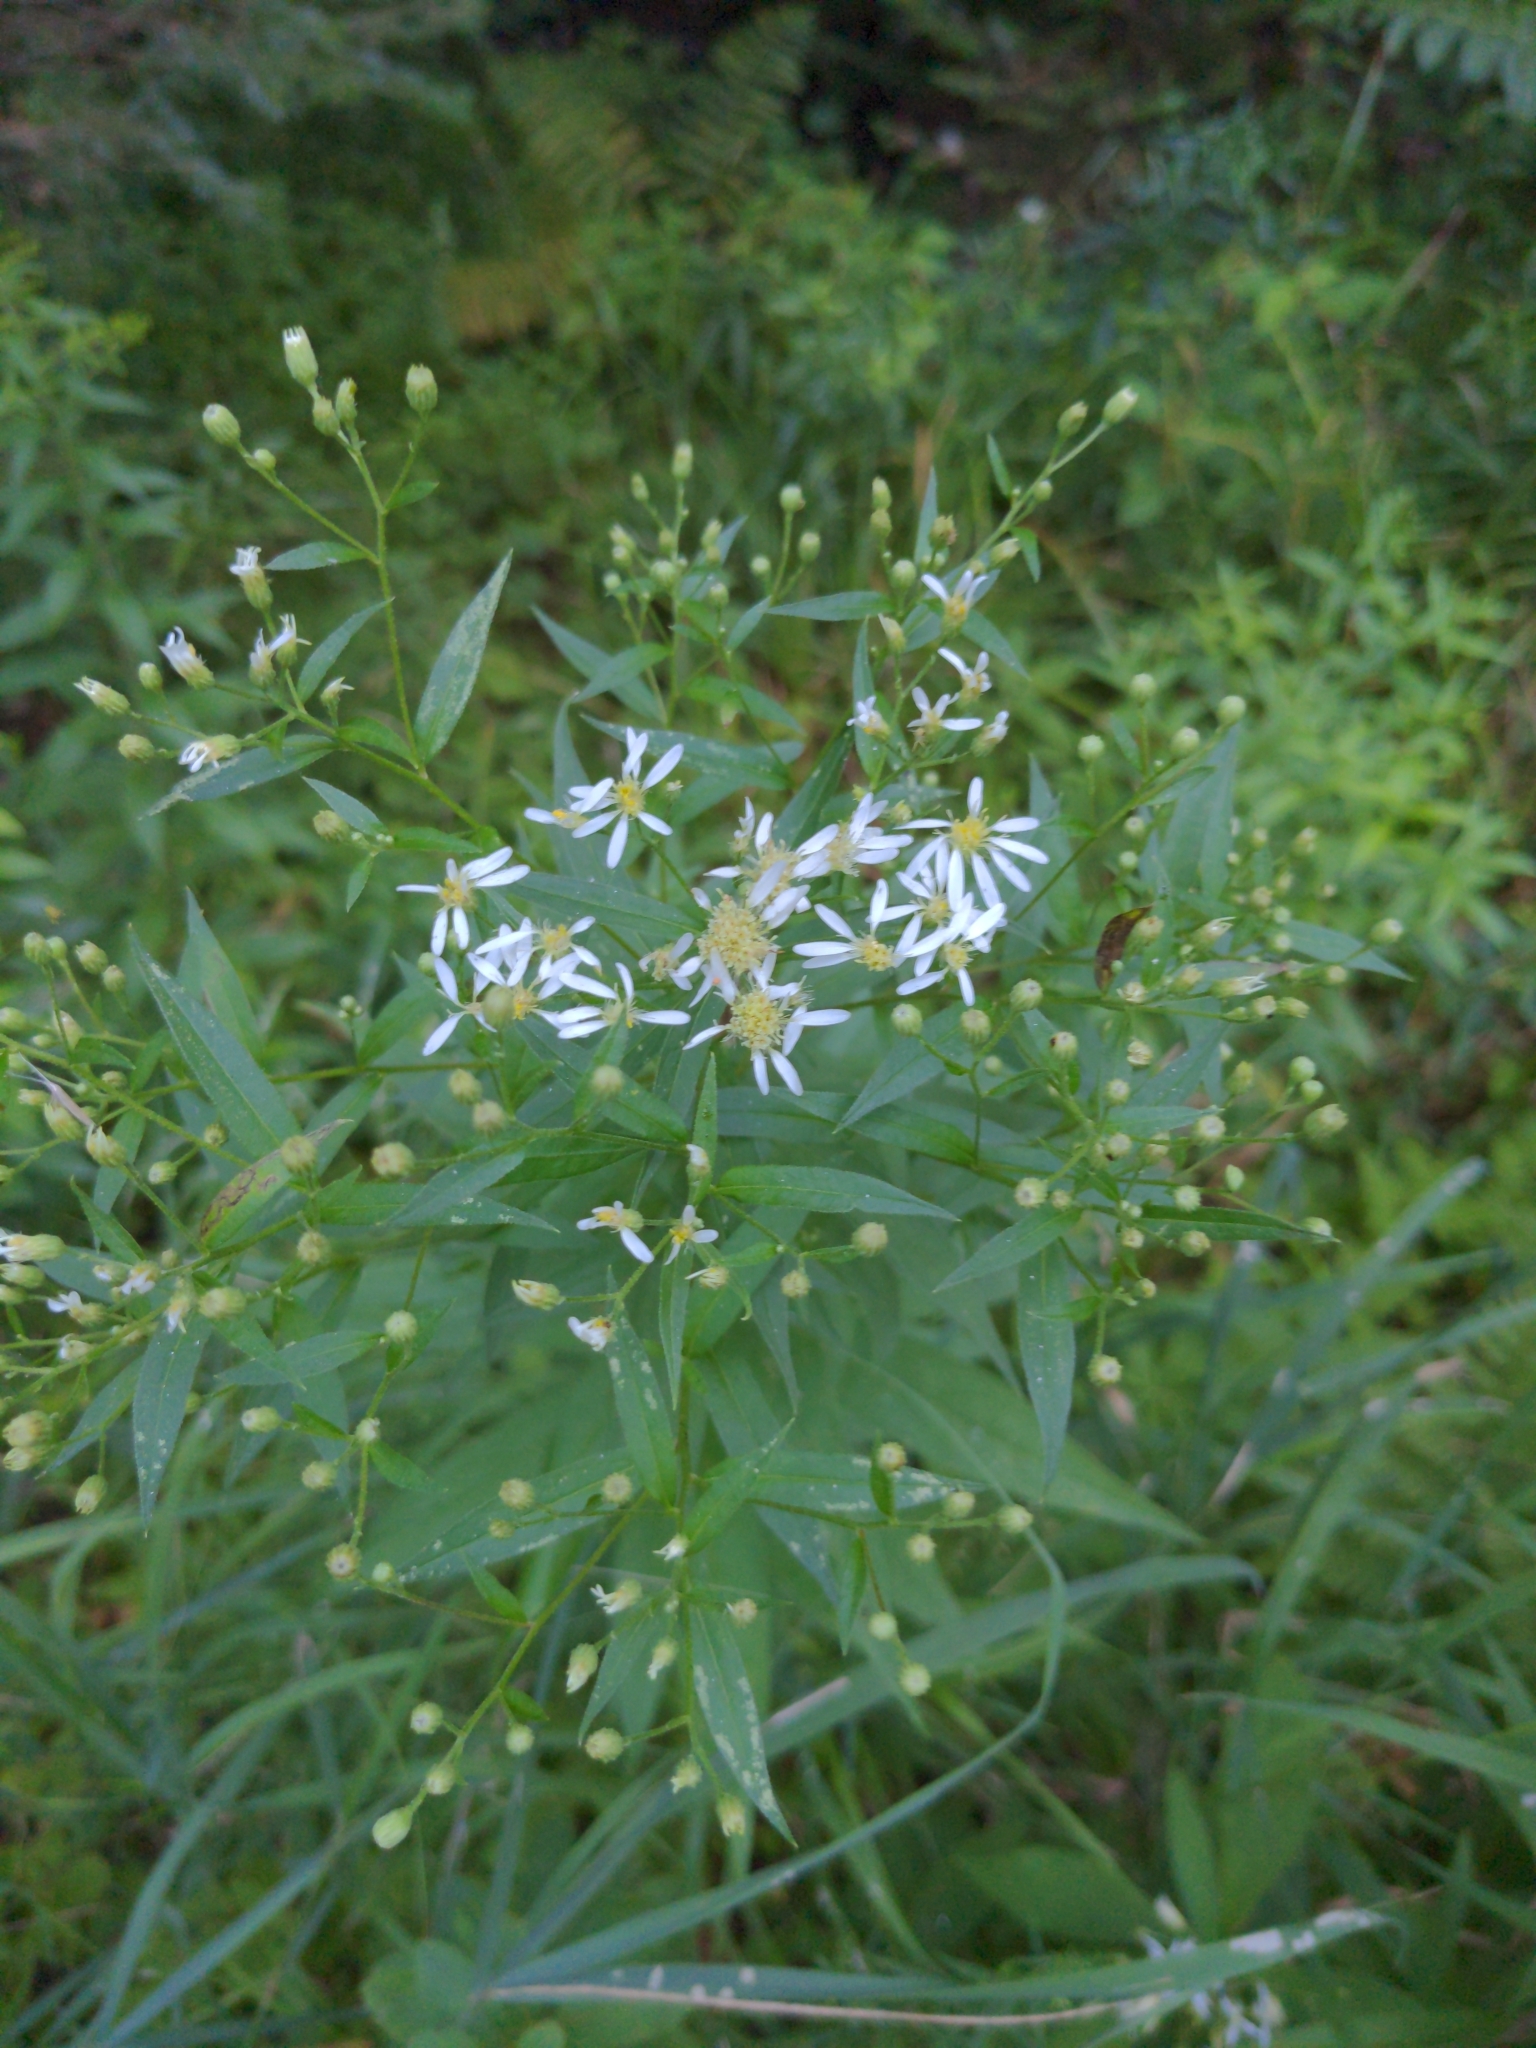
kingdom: Plantae
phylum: Tracheophyta
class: Magnoliopsida
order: Asterales
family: Asteraceae
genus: Doellingeria
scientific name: Doellingeria umbellata
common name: Flat-top white aster
